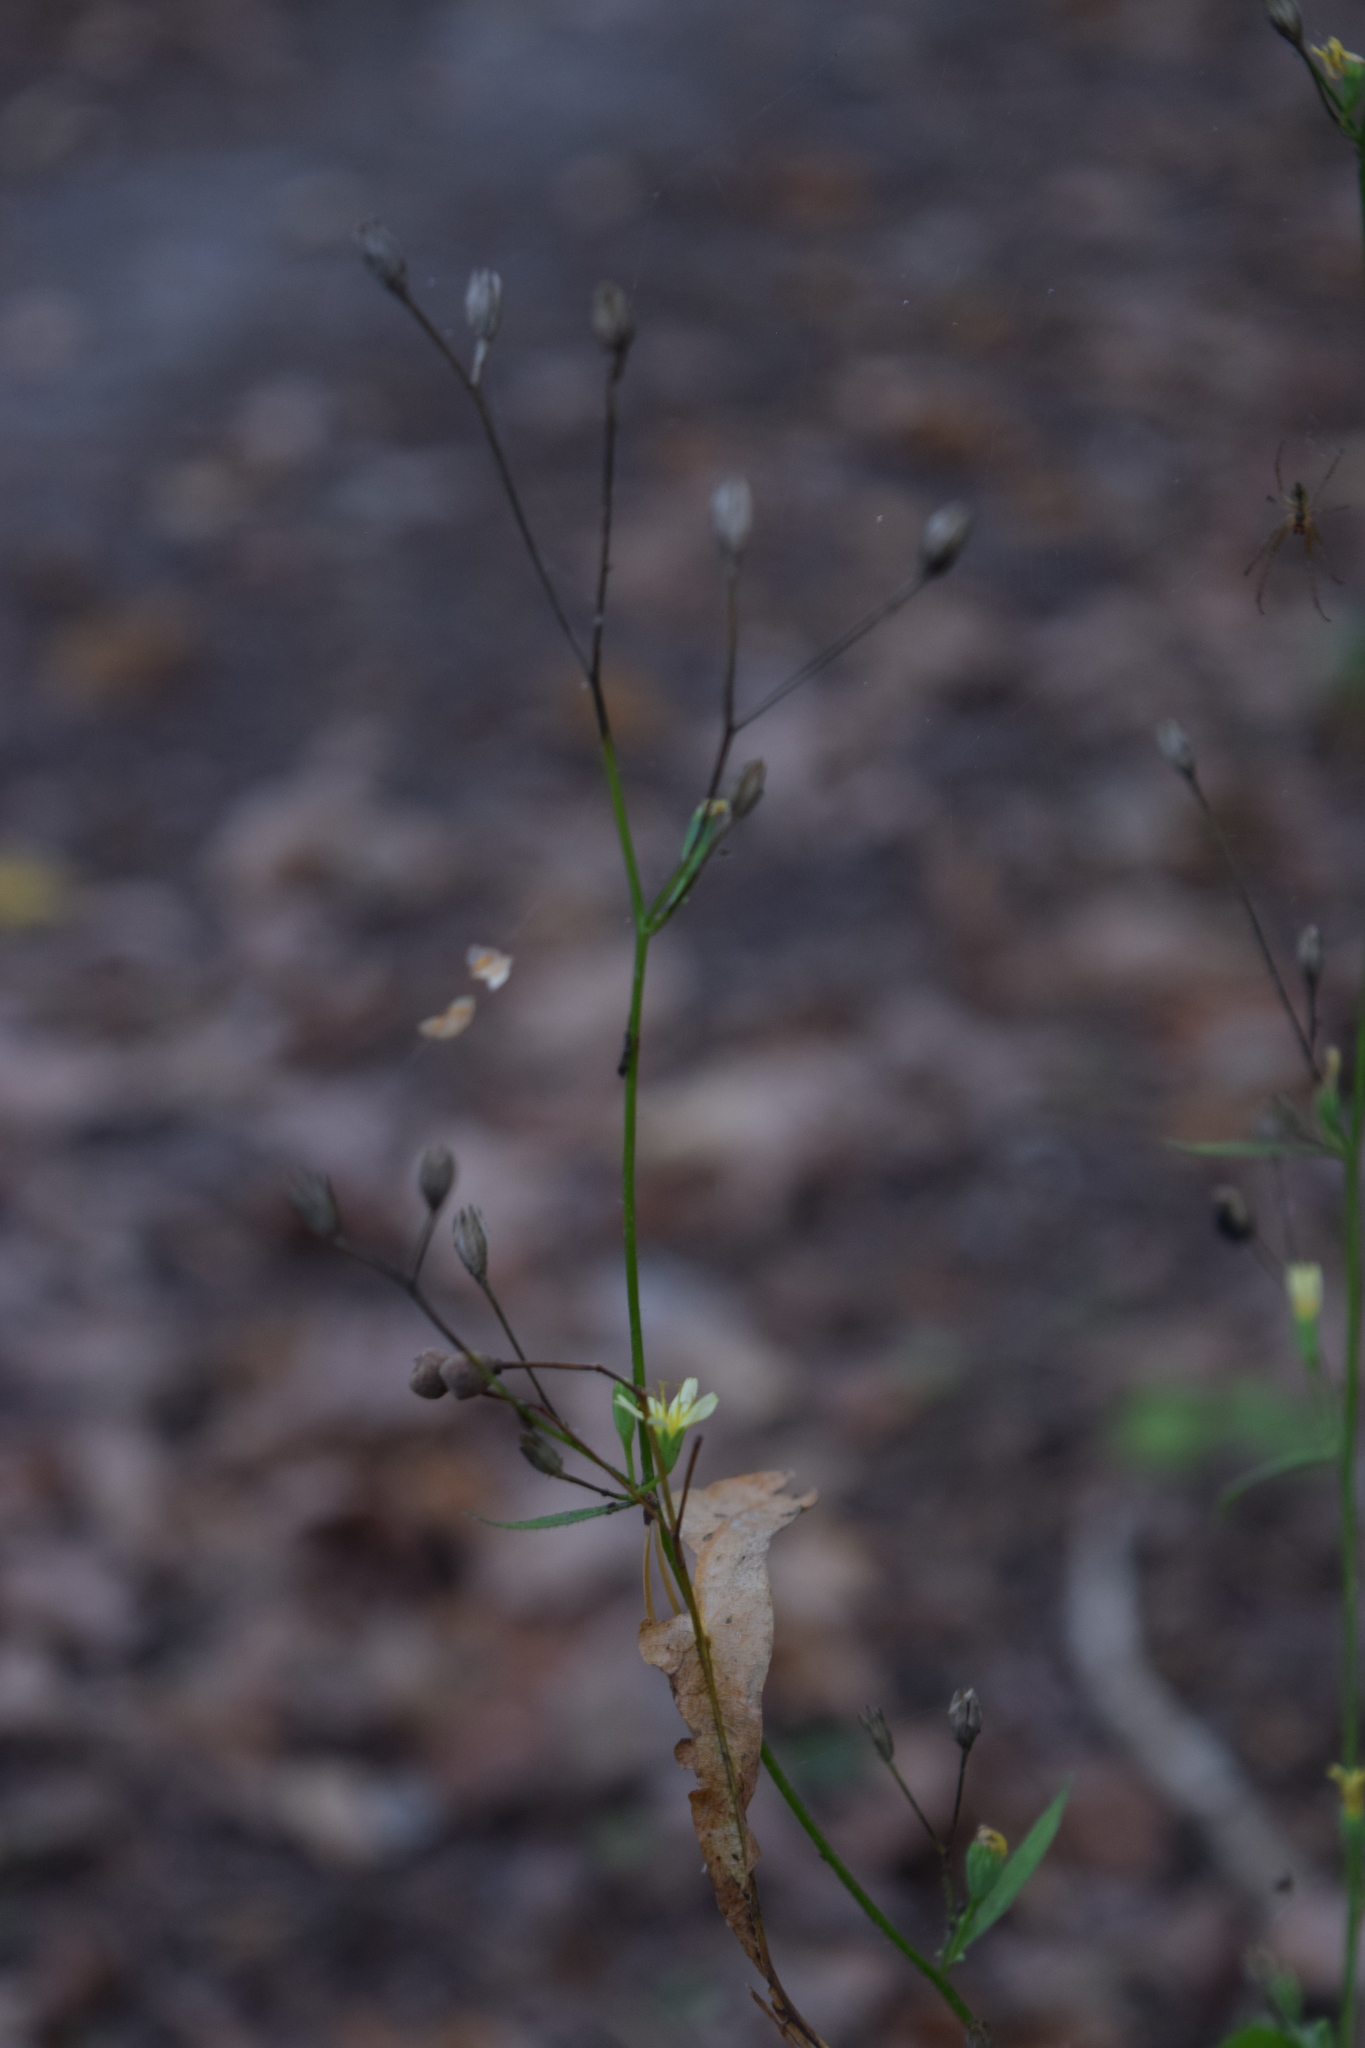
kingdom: Plantae
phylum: Tracheophyta
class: Magnoliopsida
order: Asterales
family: Asteraceae
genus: Lapsana
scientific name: Lapsana communis
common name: Nipplewort
